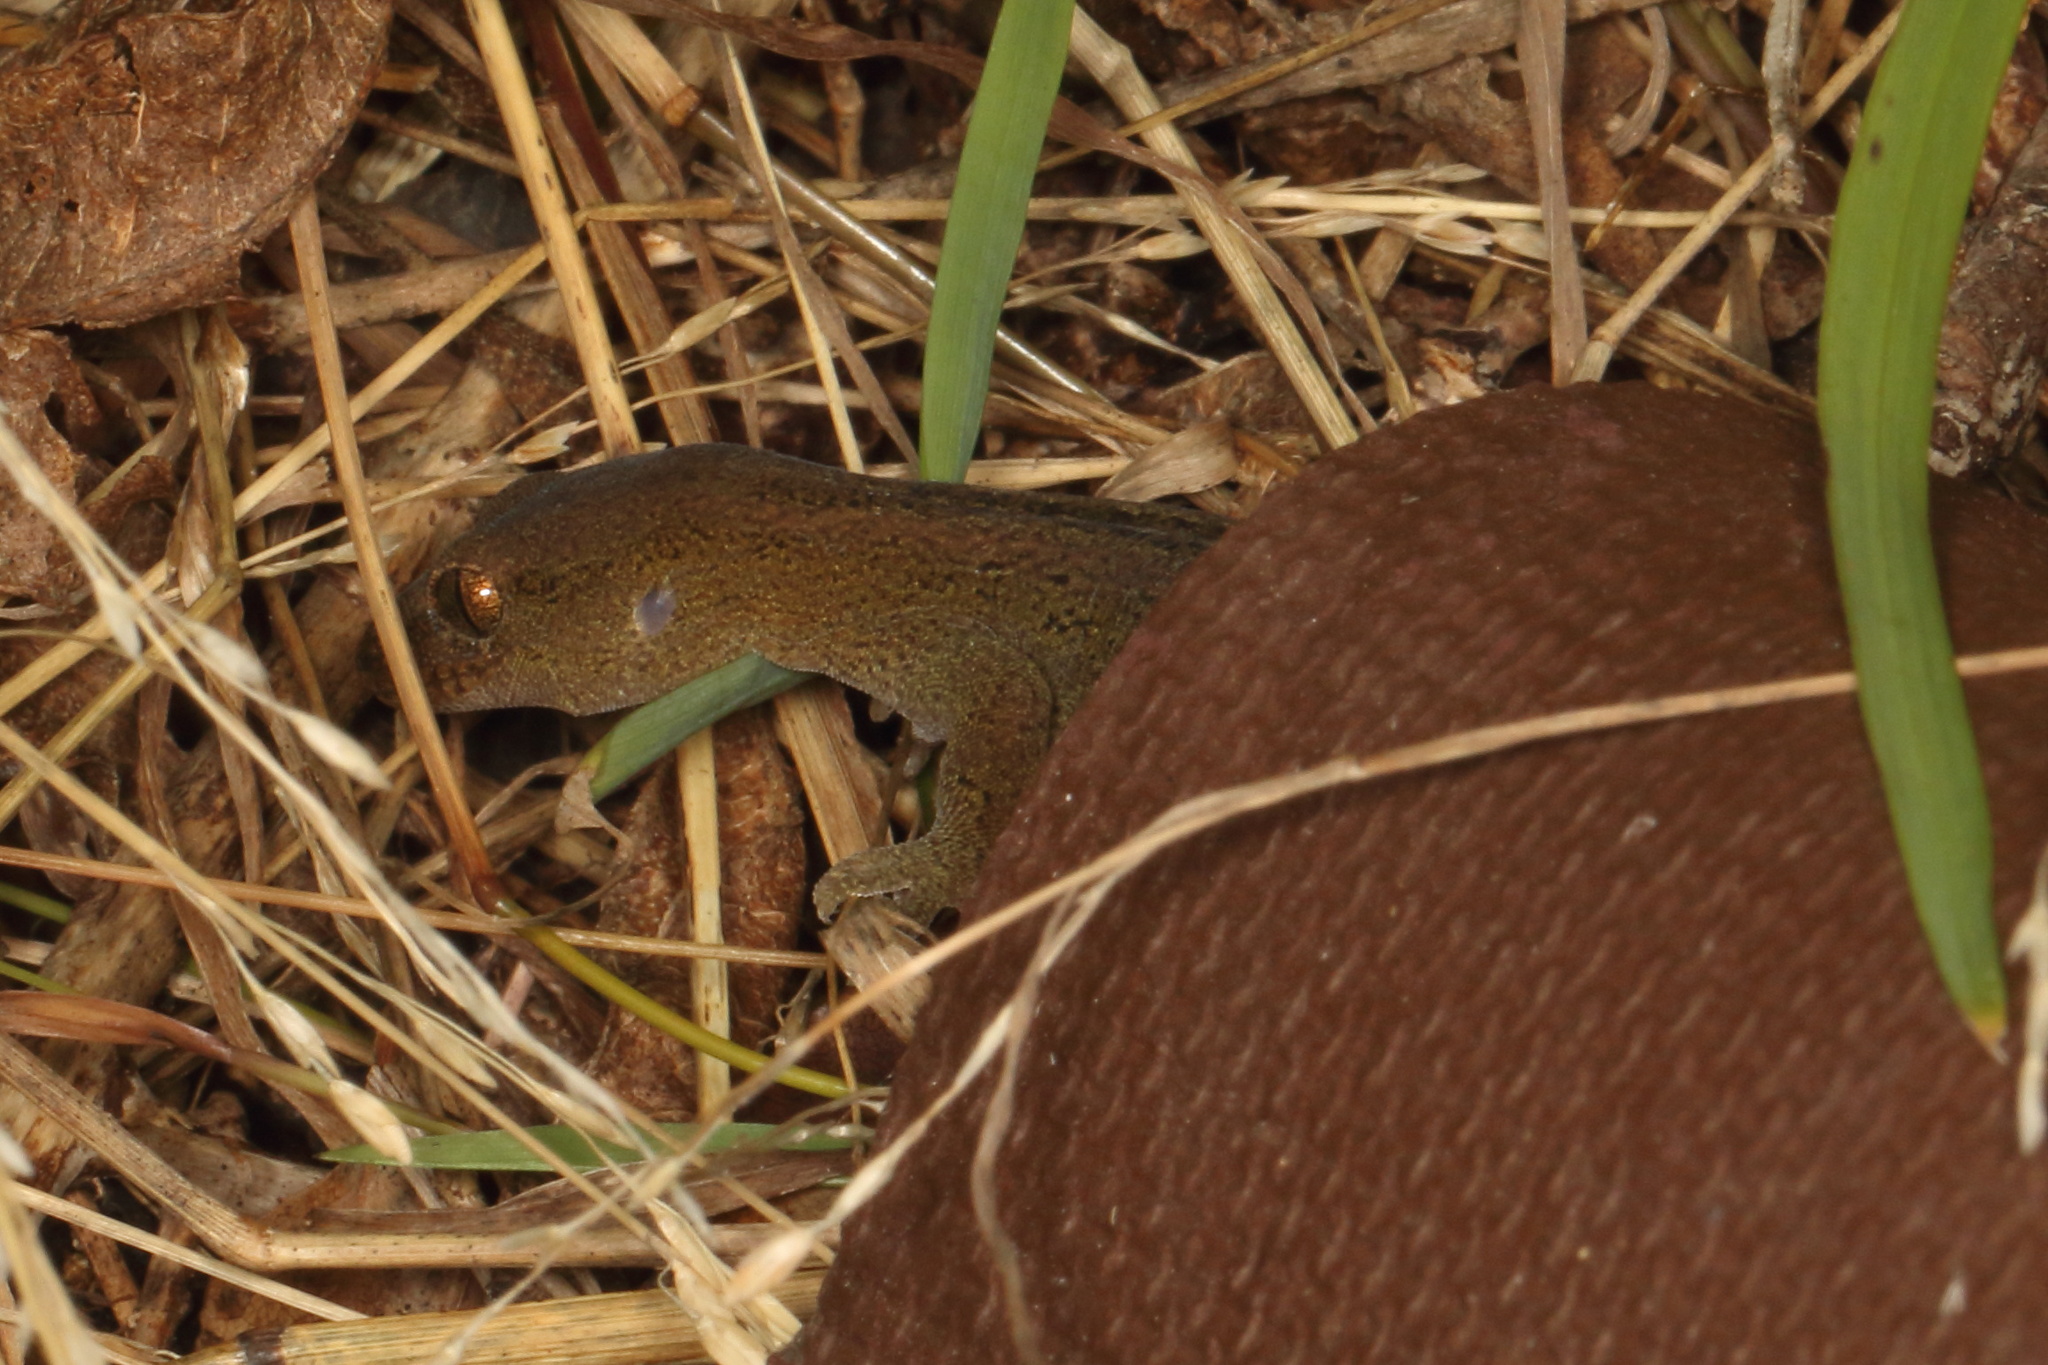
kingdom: Animalia
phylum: Chordata
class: Squamata
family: Diplodactylidae
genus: Woodworthia
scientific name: Woodworthia maculata
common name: Raukawa gecko
